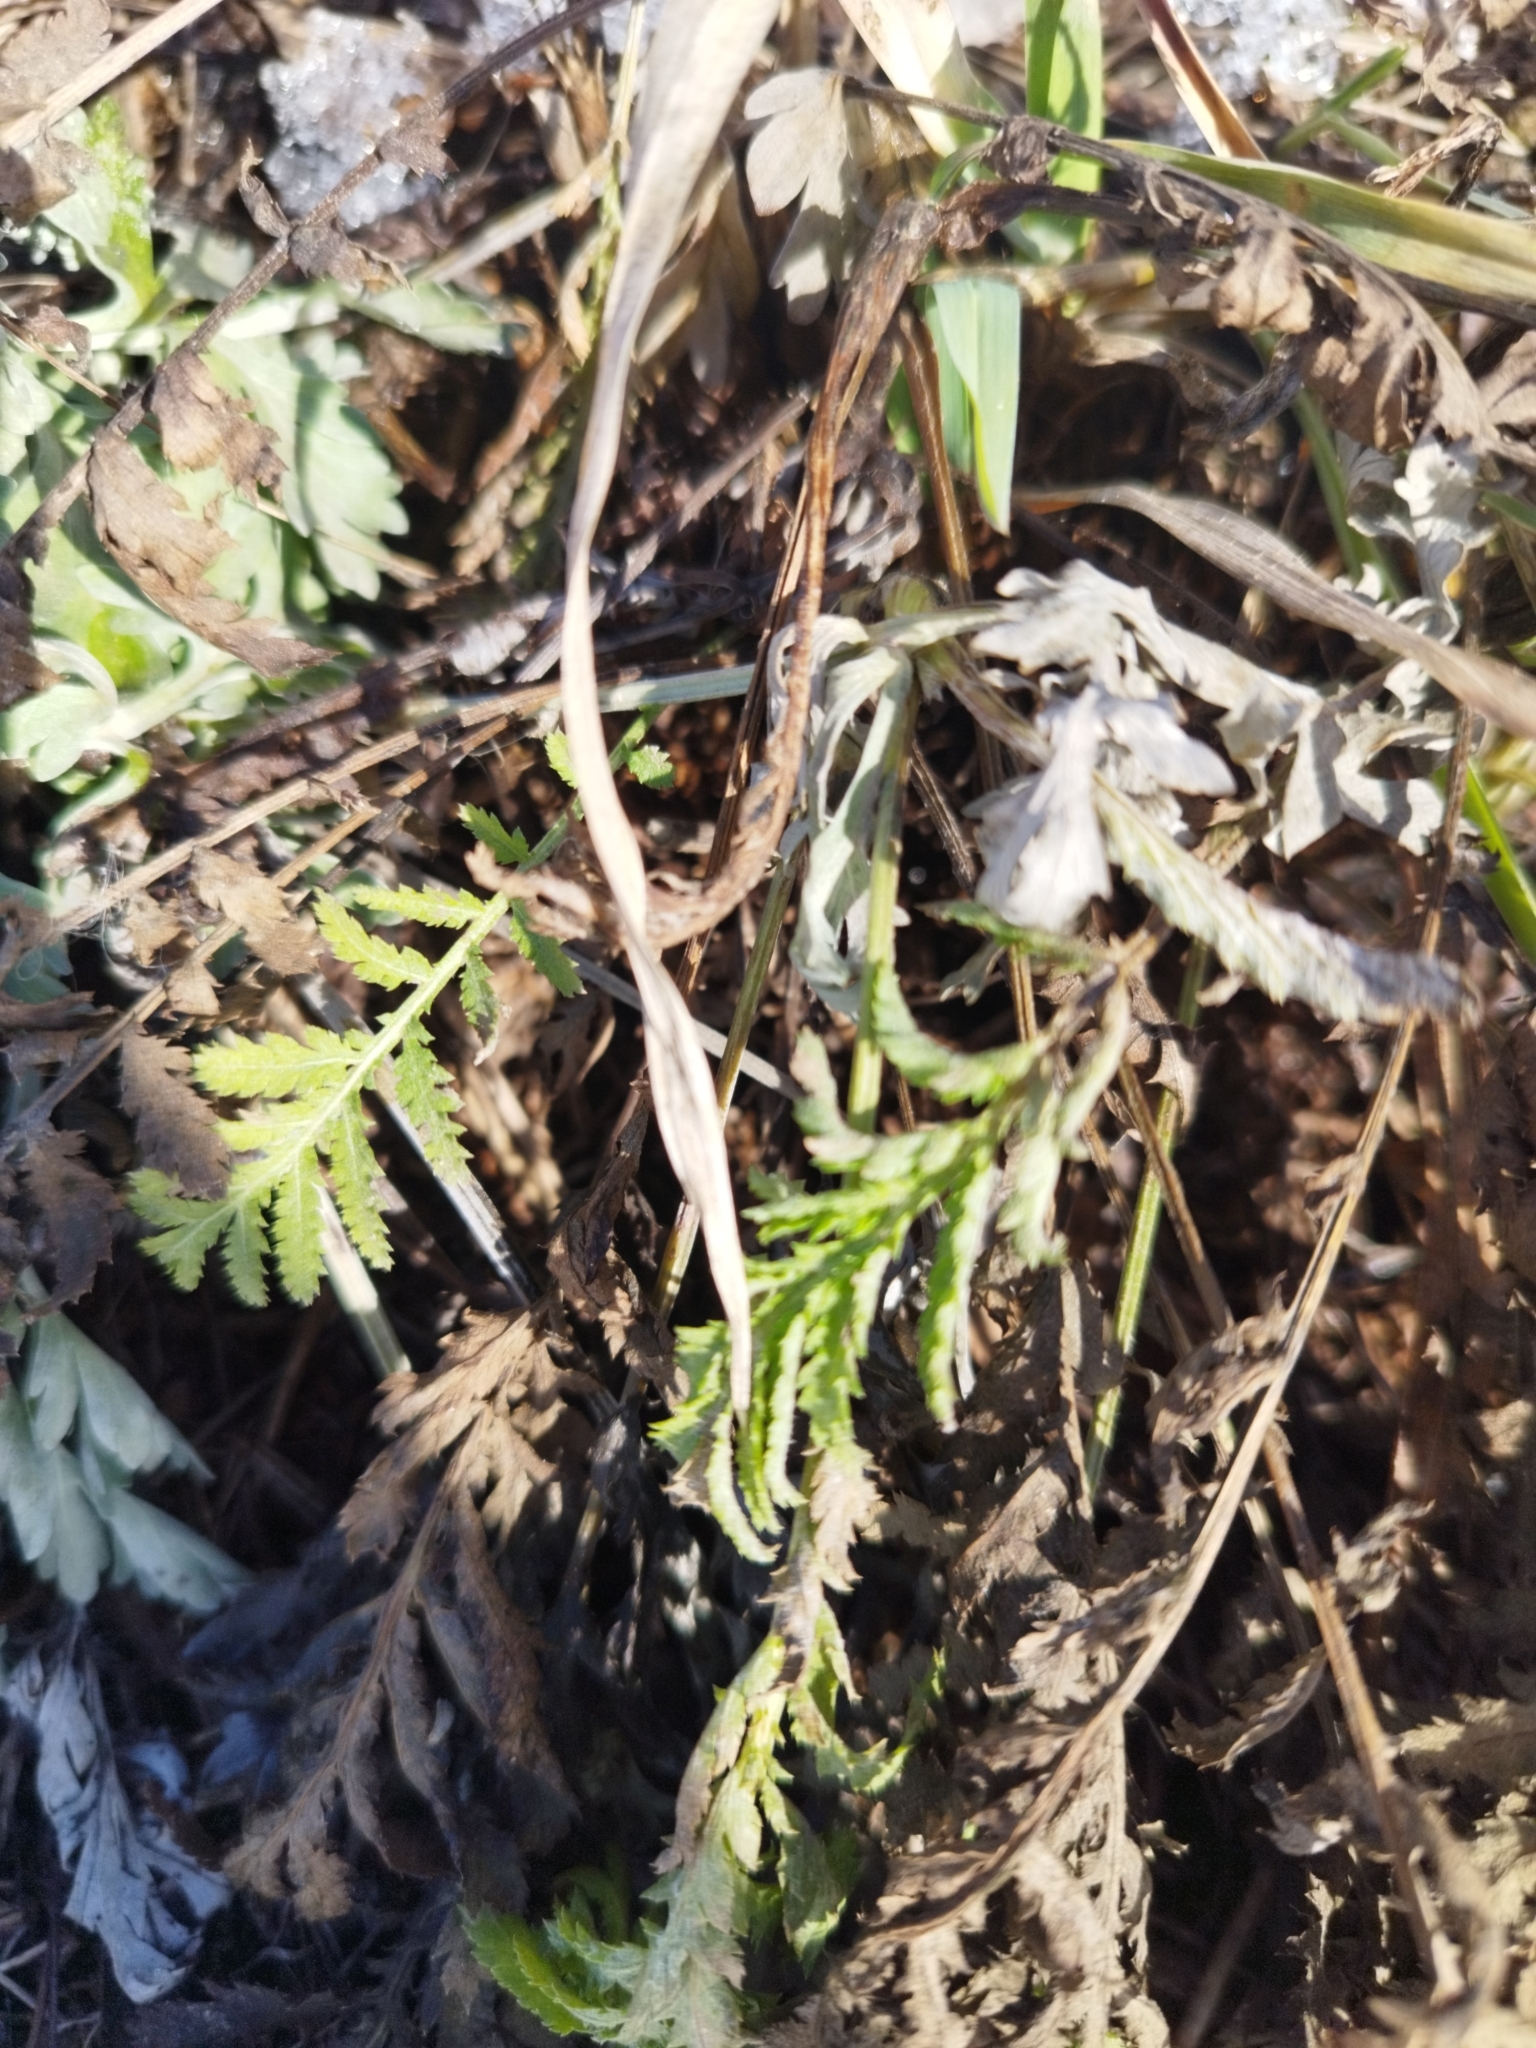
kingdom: Plantae
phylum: Tracheophyta
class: Magnoliopsida
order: Asterales
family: Asteraceae
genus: Tanacetum
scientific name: Tanacetum vulgare
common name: Common tansy
